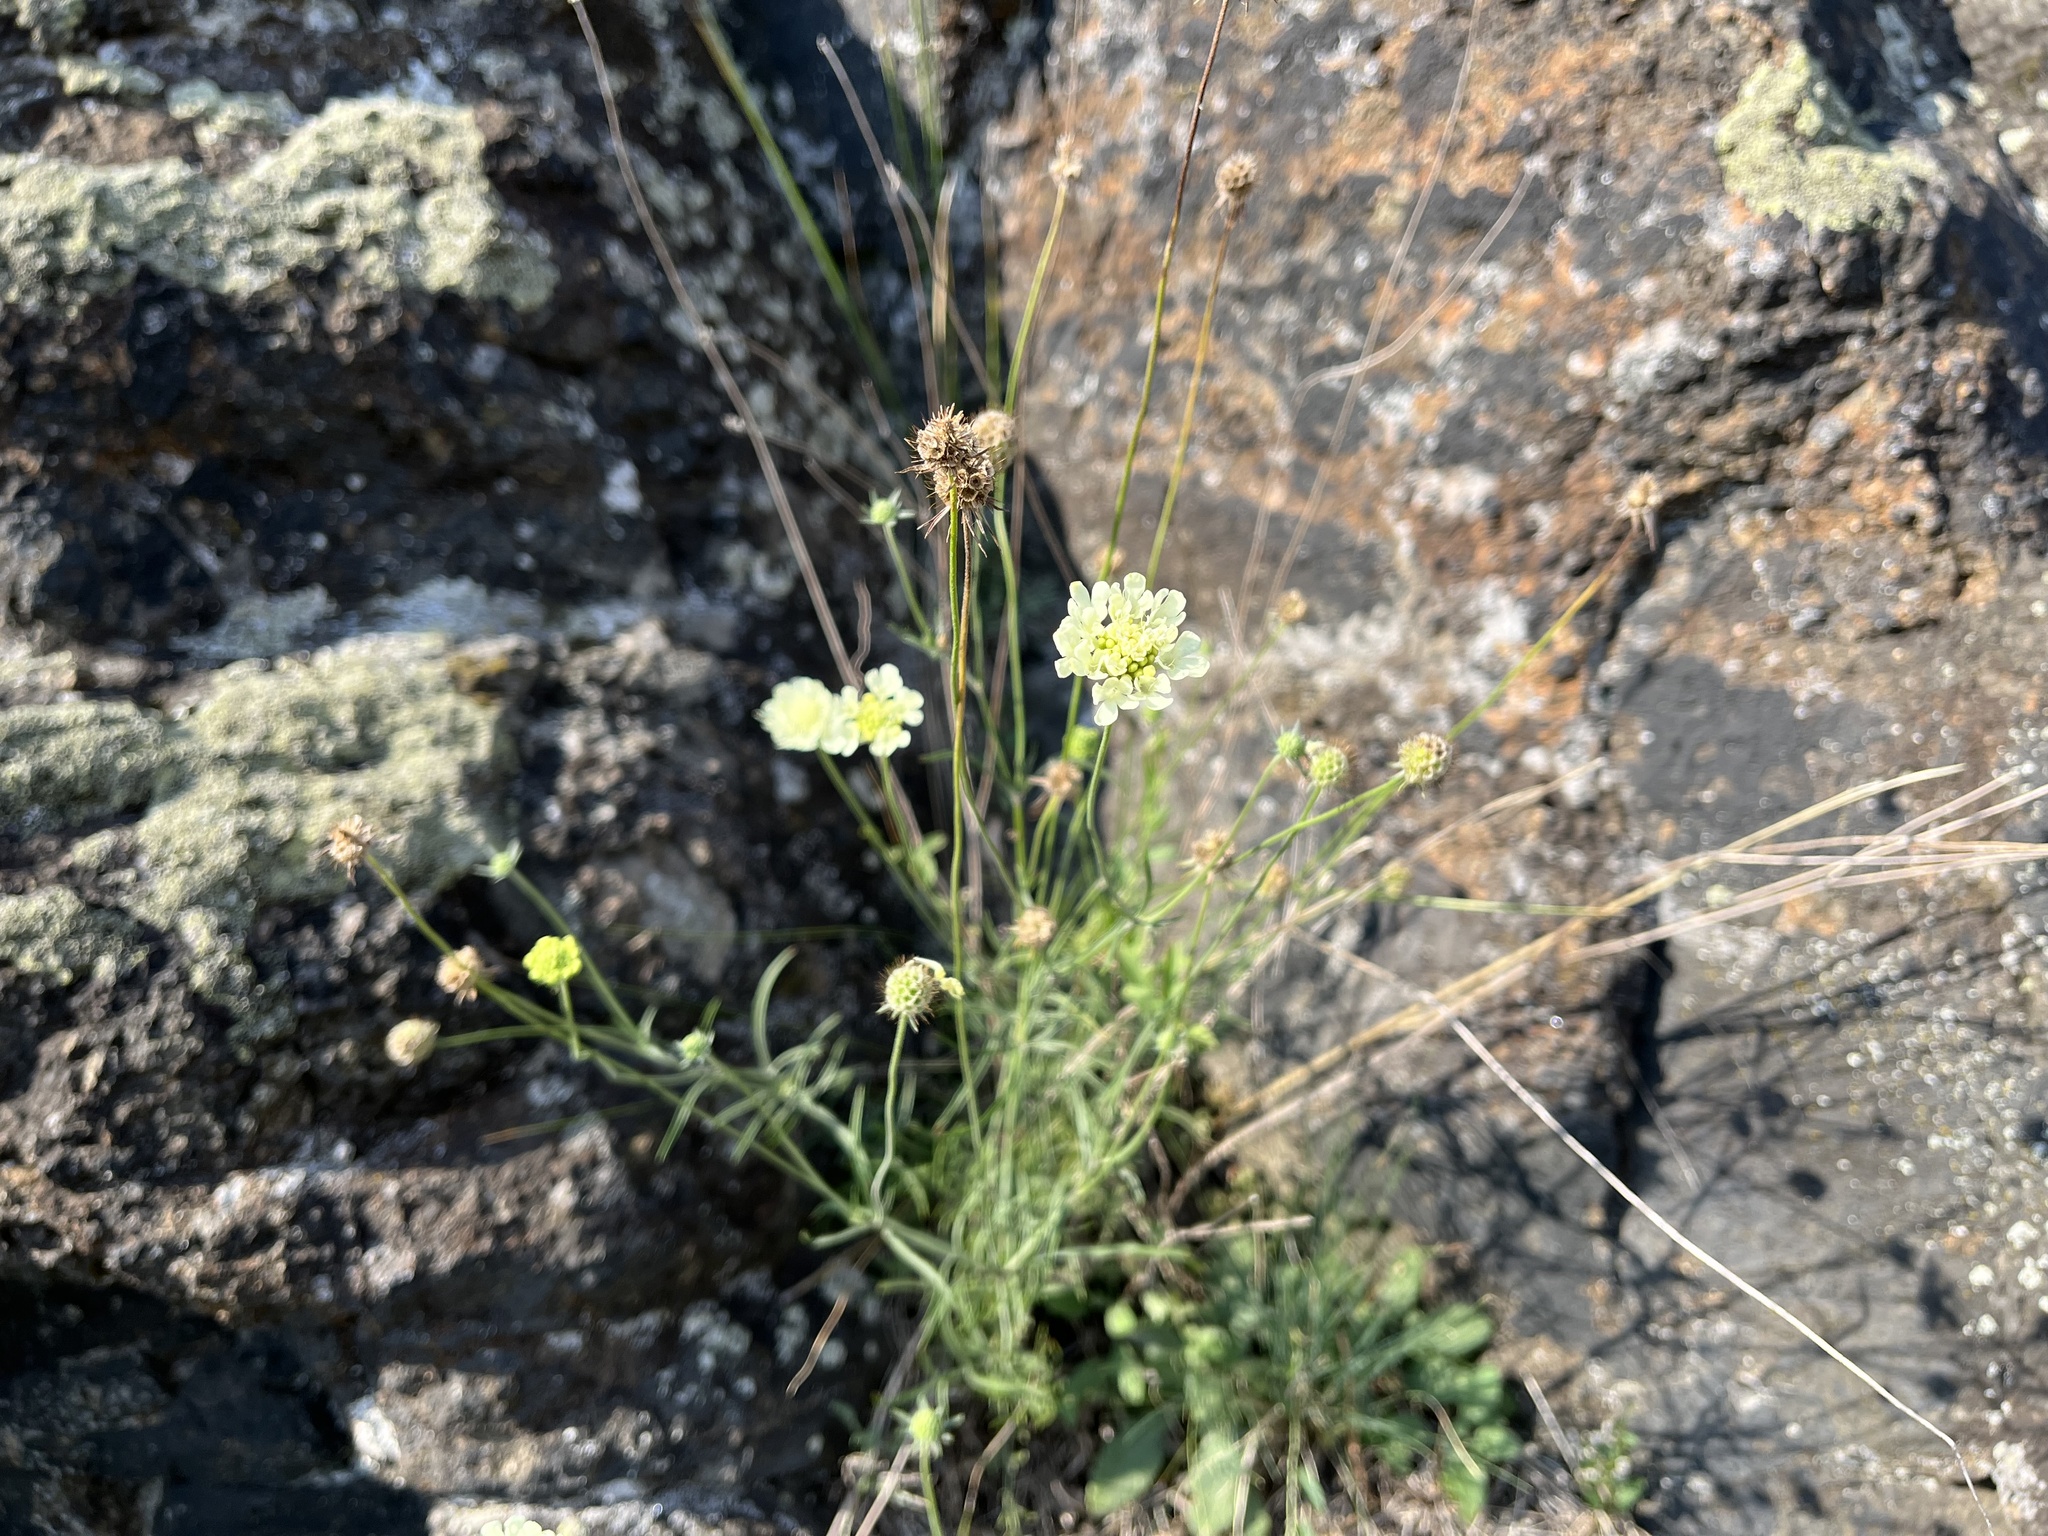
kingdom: Plantae
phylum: Tracheophyta
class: Magnoliopsida
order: Dipsacales
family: Caprifoliaceae
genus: Scabiosa
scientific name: Scabiosa ochroleuca
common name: Cream pincushions
